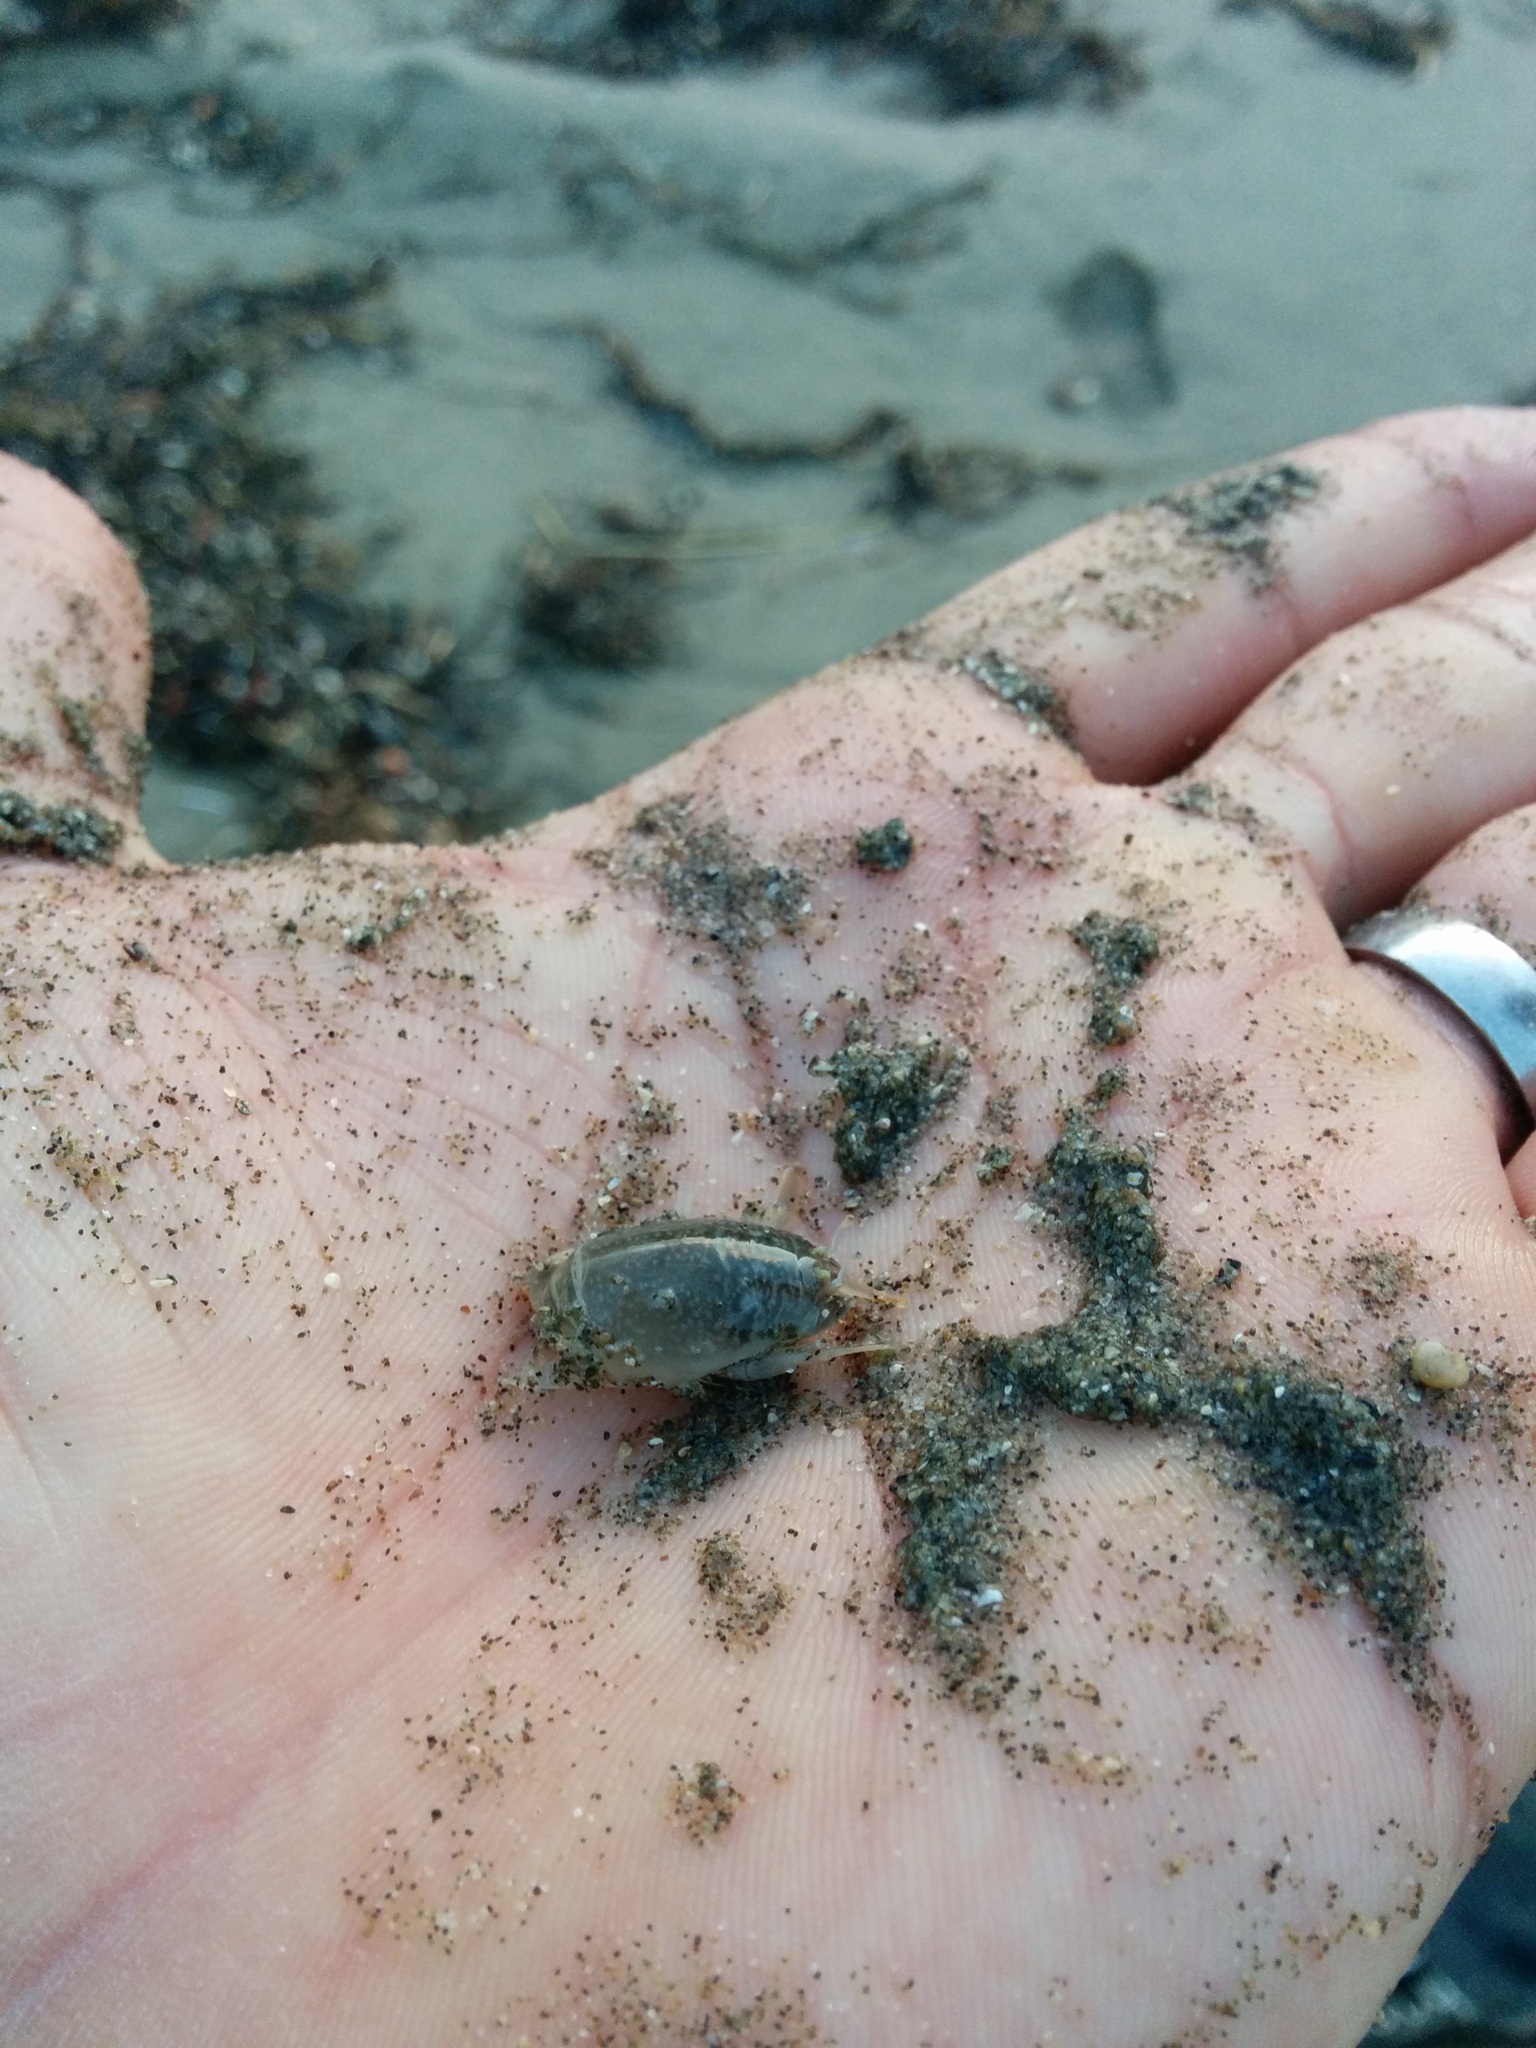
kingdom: Animalia
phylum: Arthropoda
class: Malacostraca
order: Decapoda
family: Hippidae
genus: Emerita
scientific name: Emerita analoga
